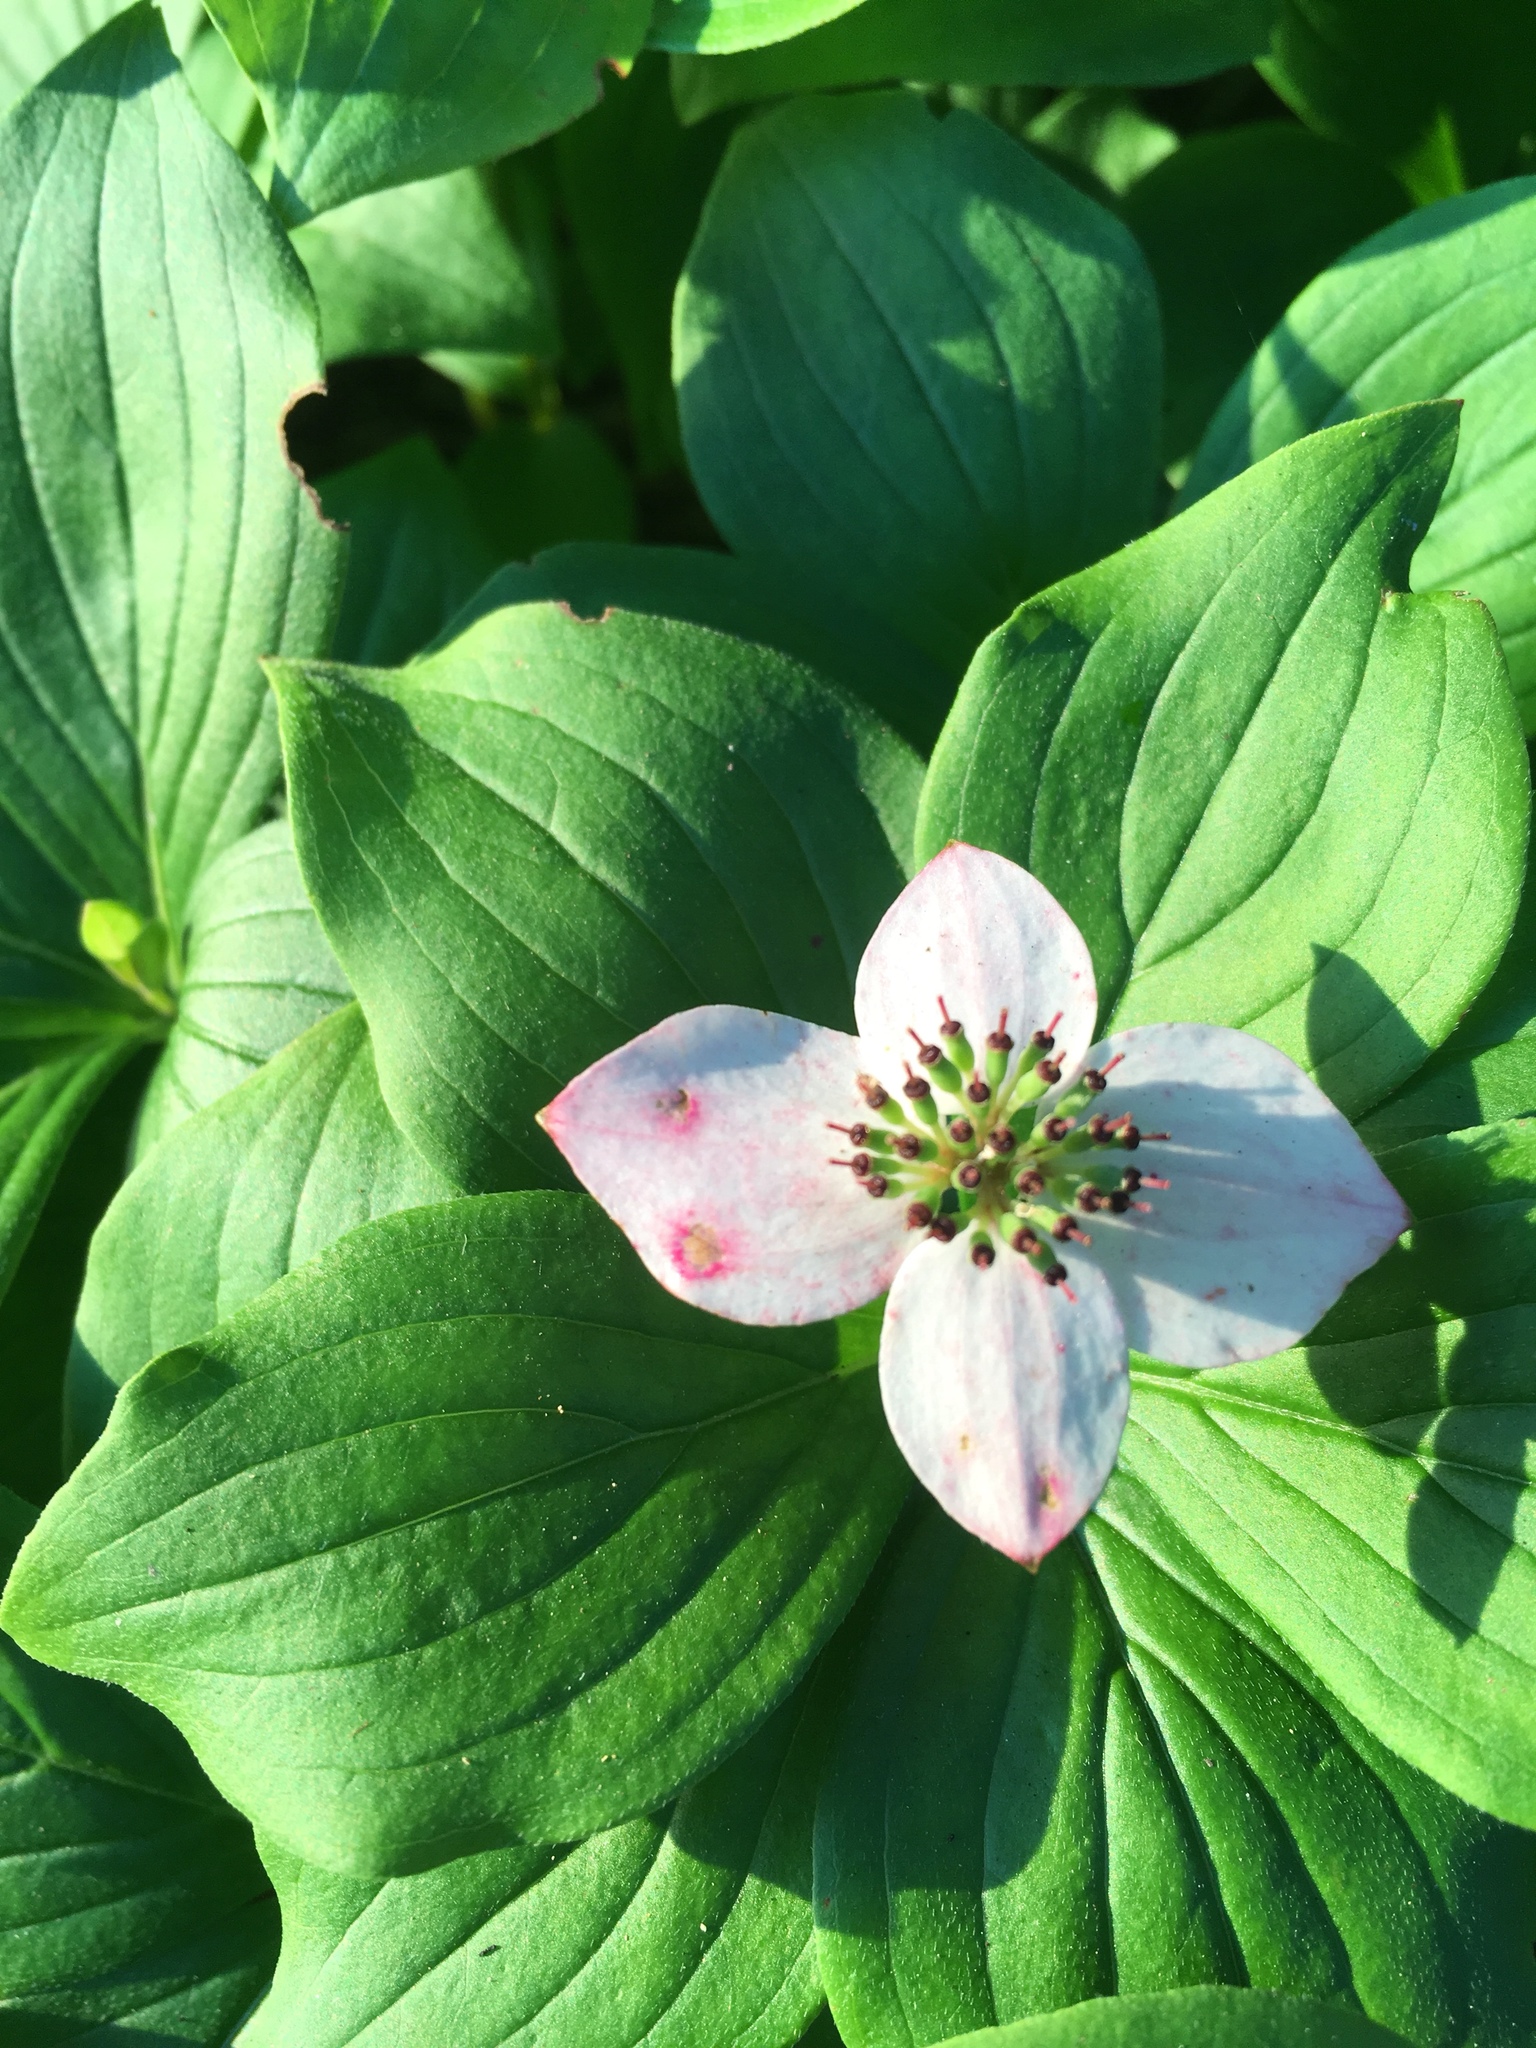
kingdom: Plantae
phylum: Tracheophyta
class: Magnoliopsida
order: Cornales
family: Cornaceae
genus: Cornus
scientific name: Cornus canadensis
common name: Creeping dogwood
